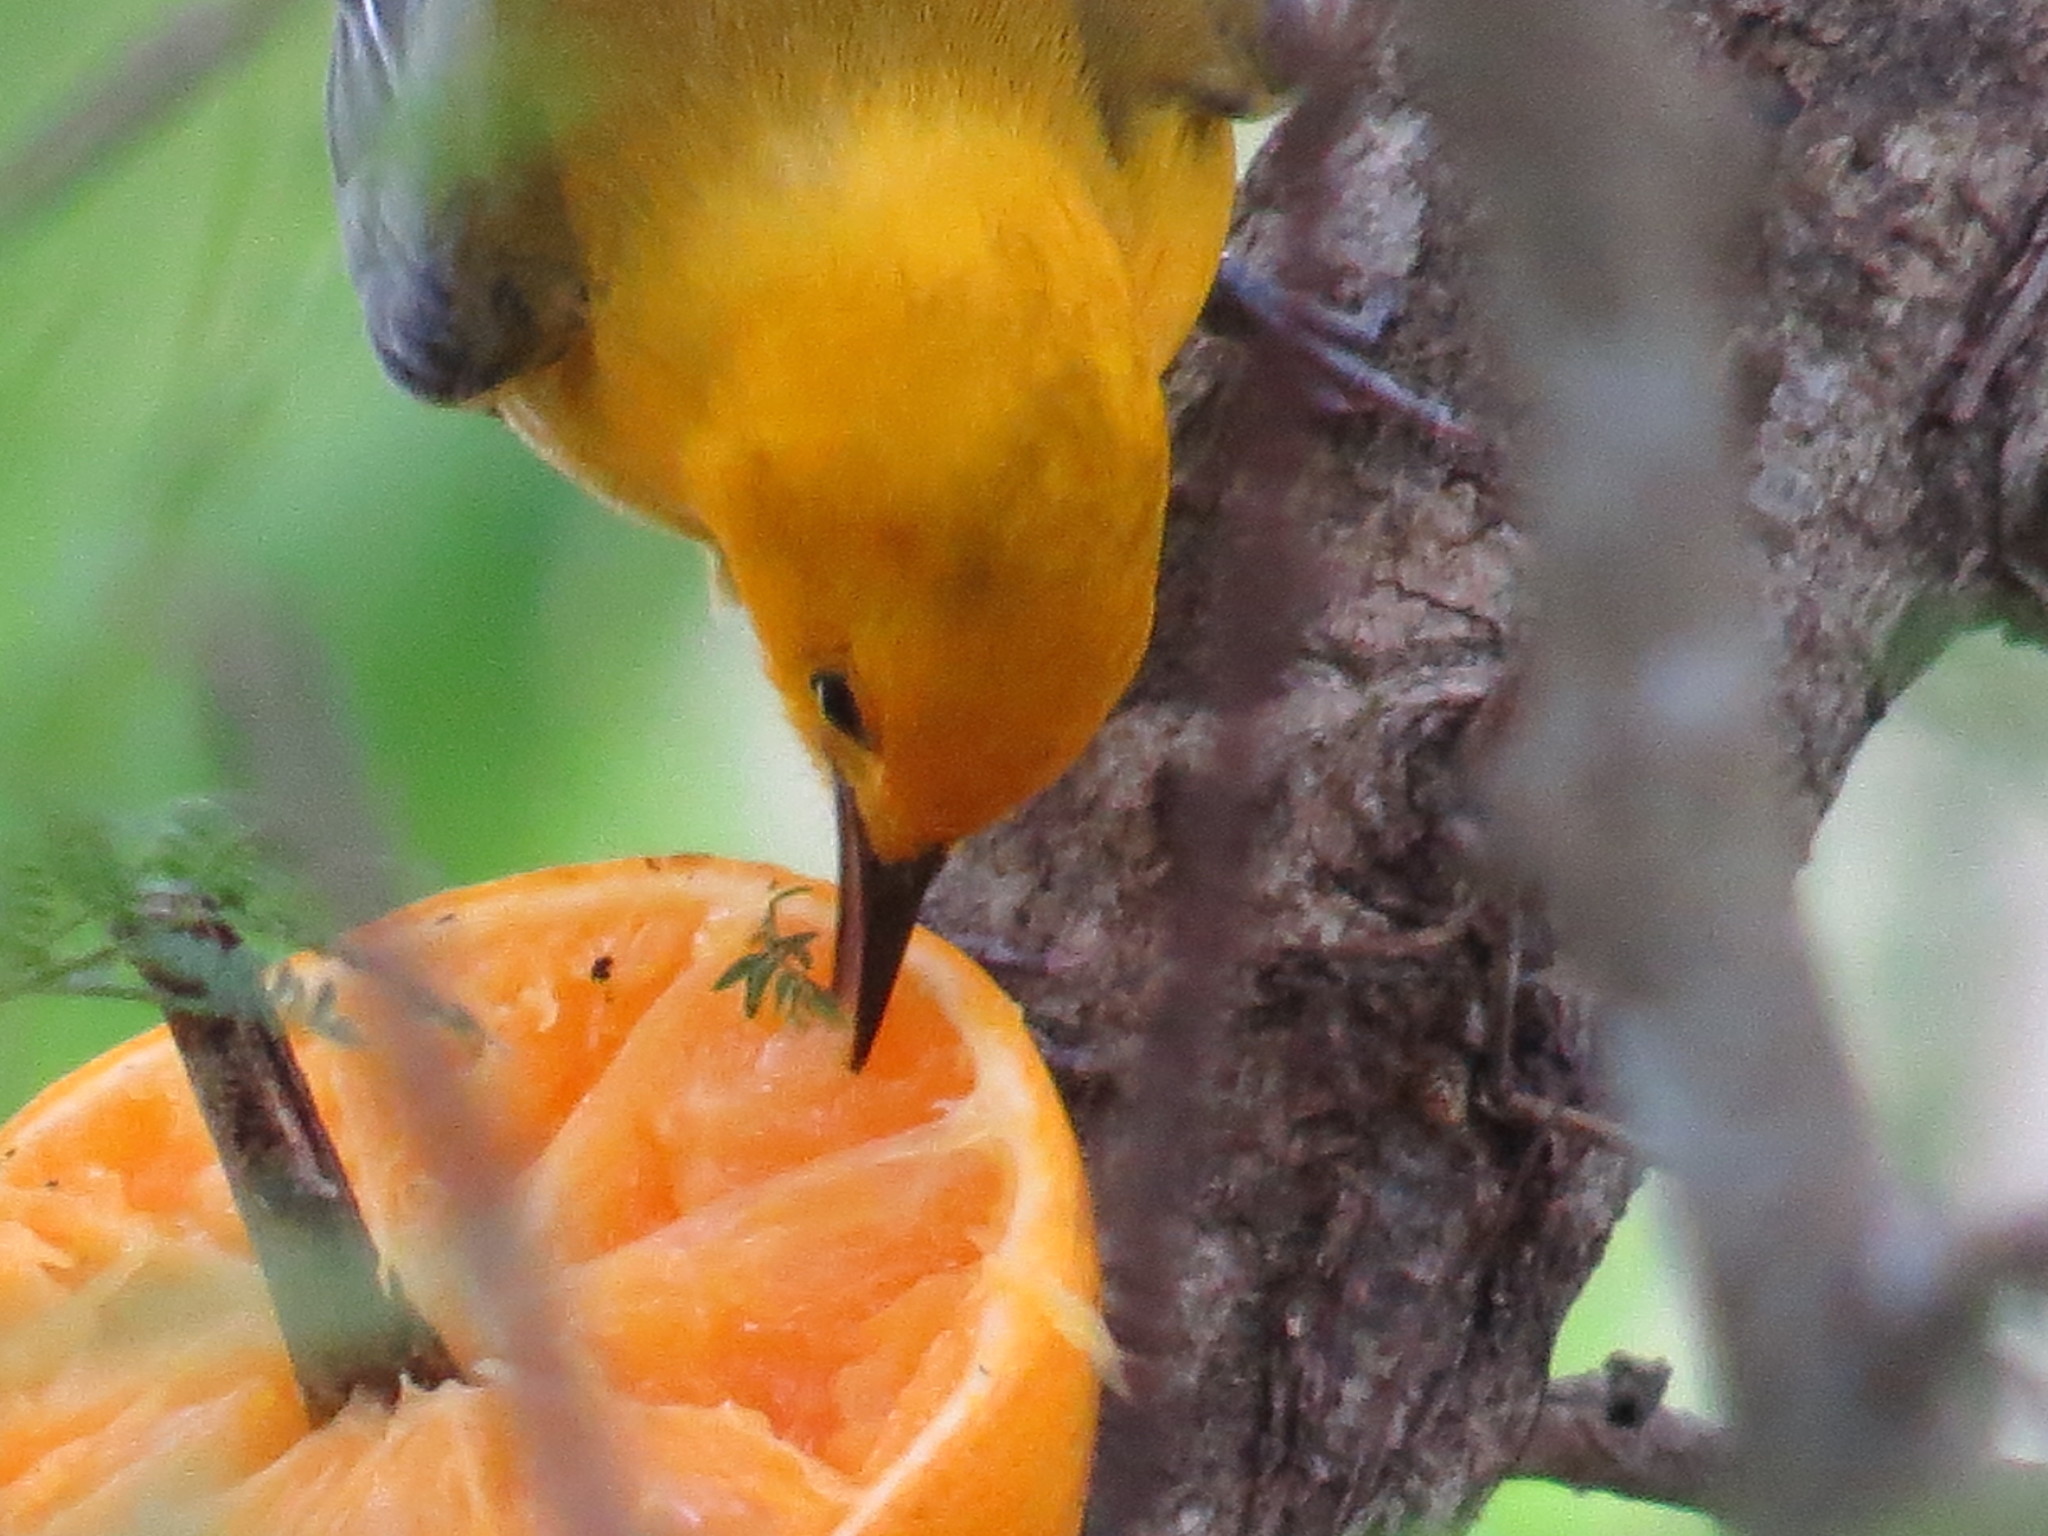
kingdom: Animalia
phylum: Chordata
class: Aves
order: Passeriformes
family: Parulidae
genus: Protonotaria
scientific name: Protonotaria citrea
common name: Prothonotary warbler
